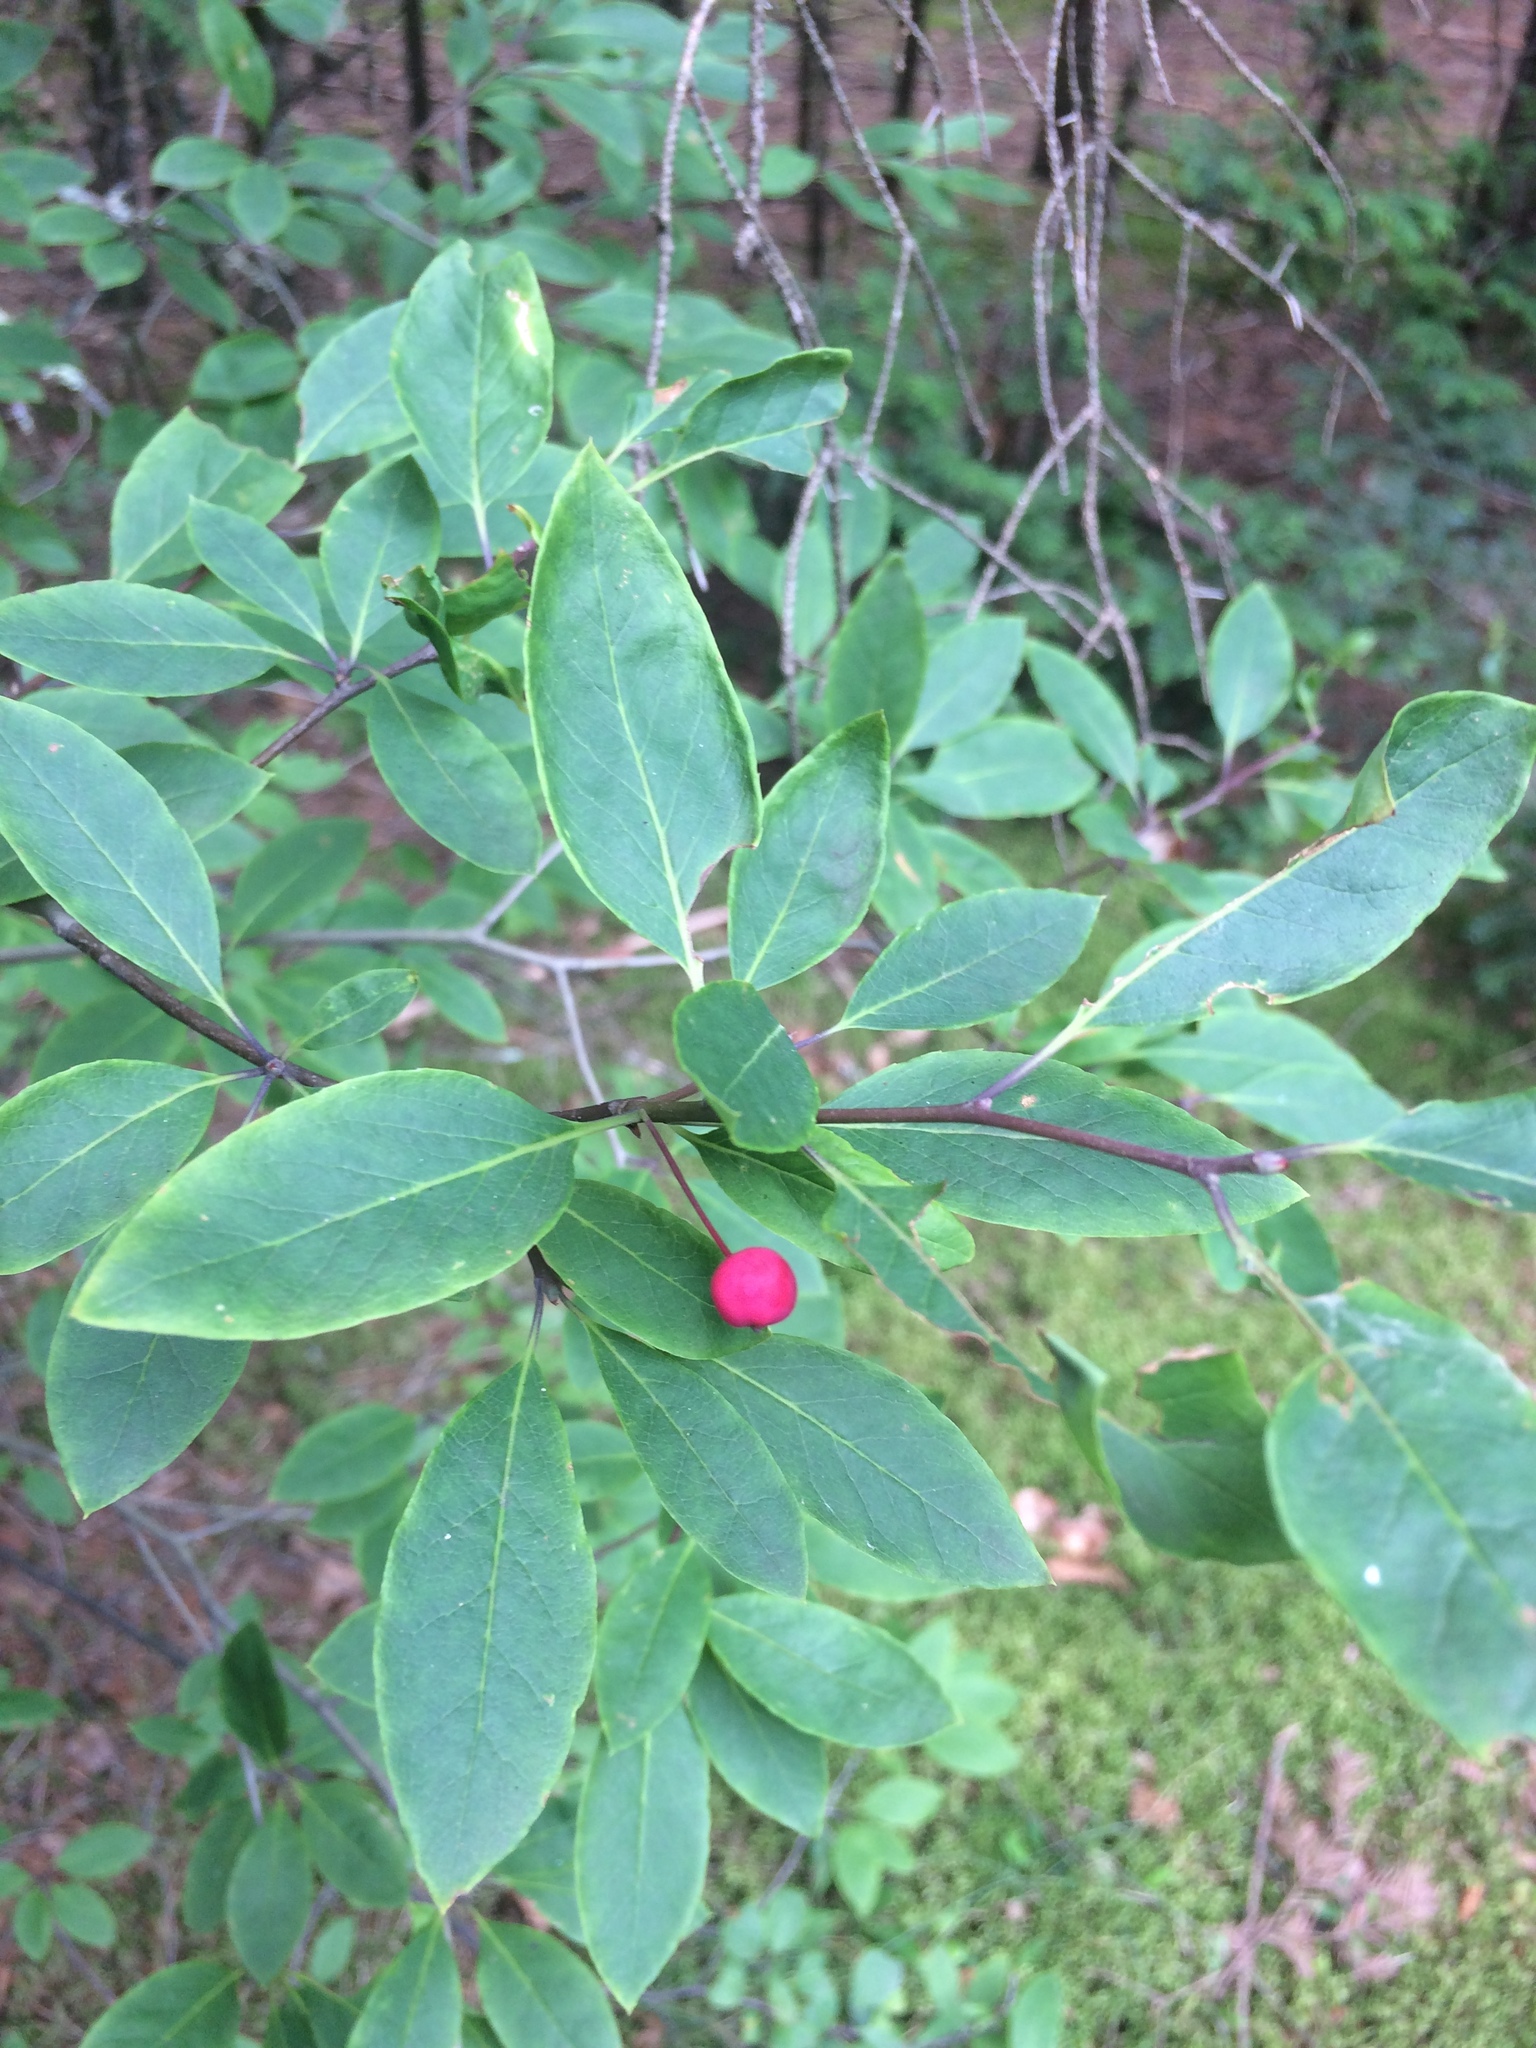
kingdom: Plantae
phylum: Tracheophyta
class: Magnoliopsida
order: Aquifoliales
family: Aquifoliaceae
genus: Ilex
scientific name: Ilex mucronata
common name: Catberry
